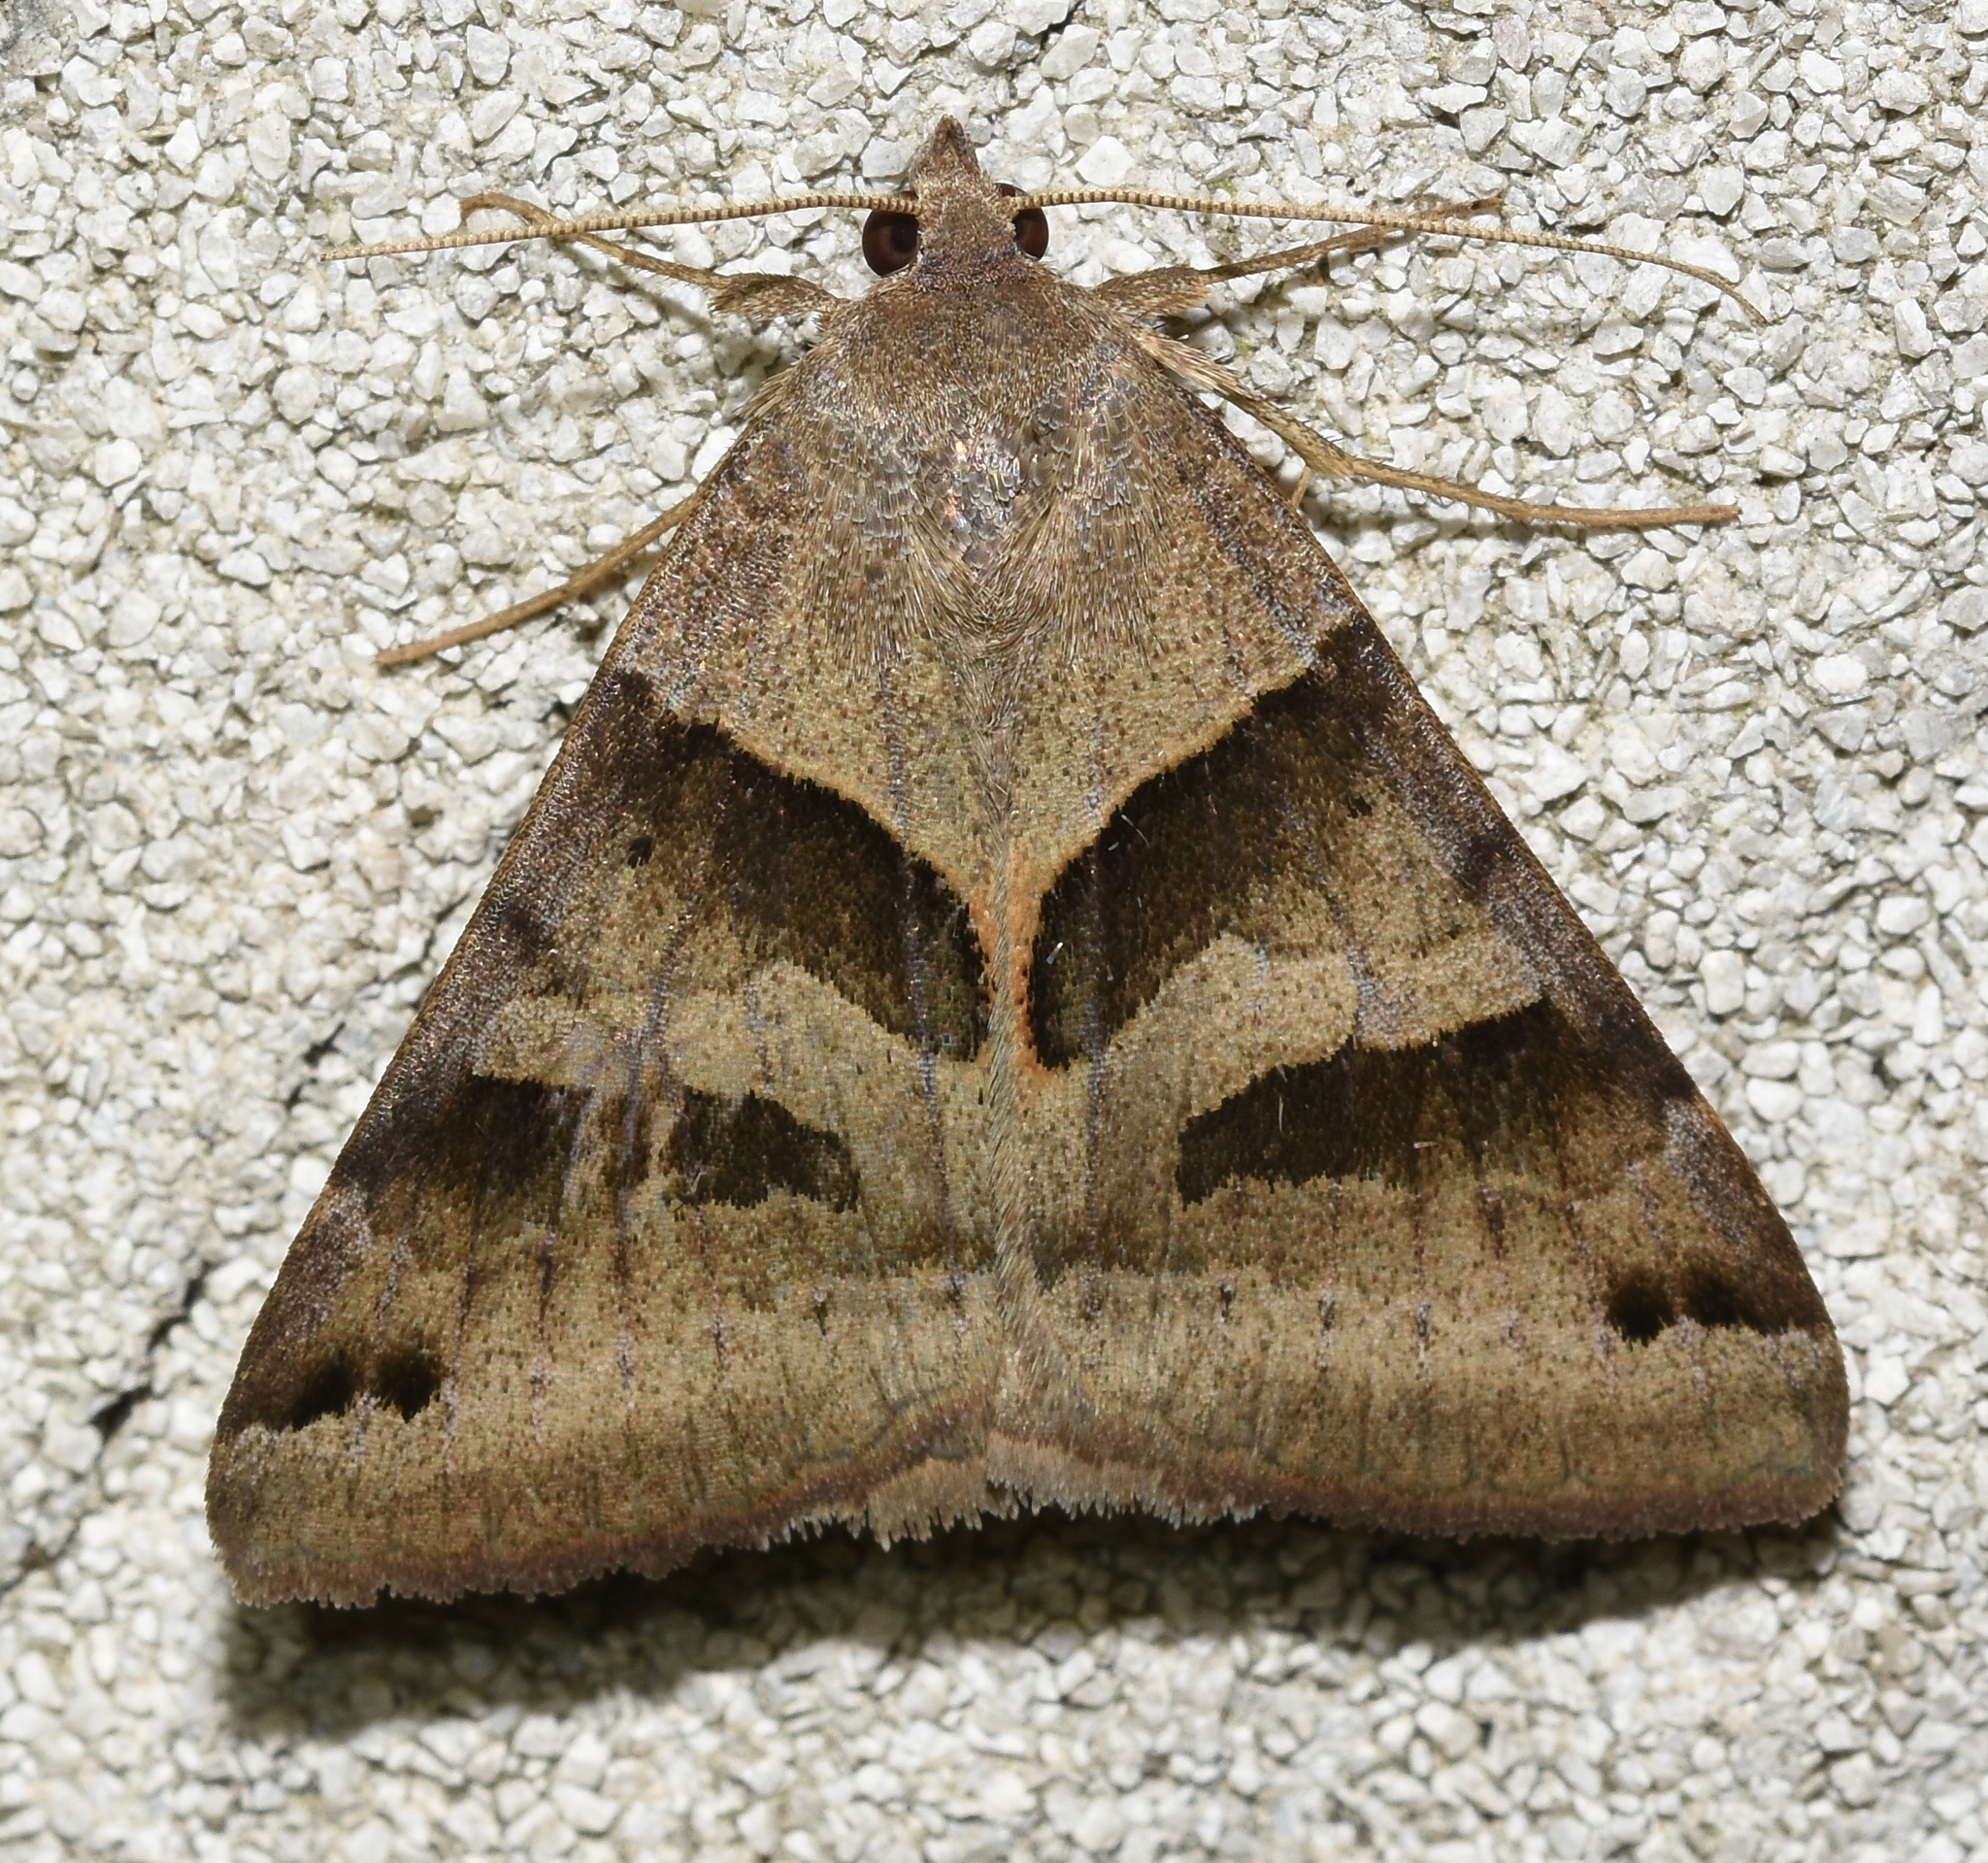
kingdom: Animalia
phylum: Arthropoda
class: Insecta
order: Lepidoptera
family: Erebidae
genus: Caenurgina
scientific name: Caenurgina erechtea
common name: Forage looper moth
